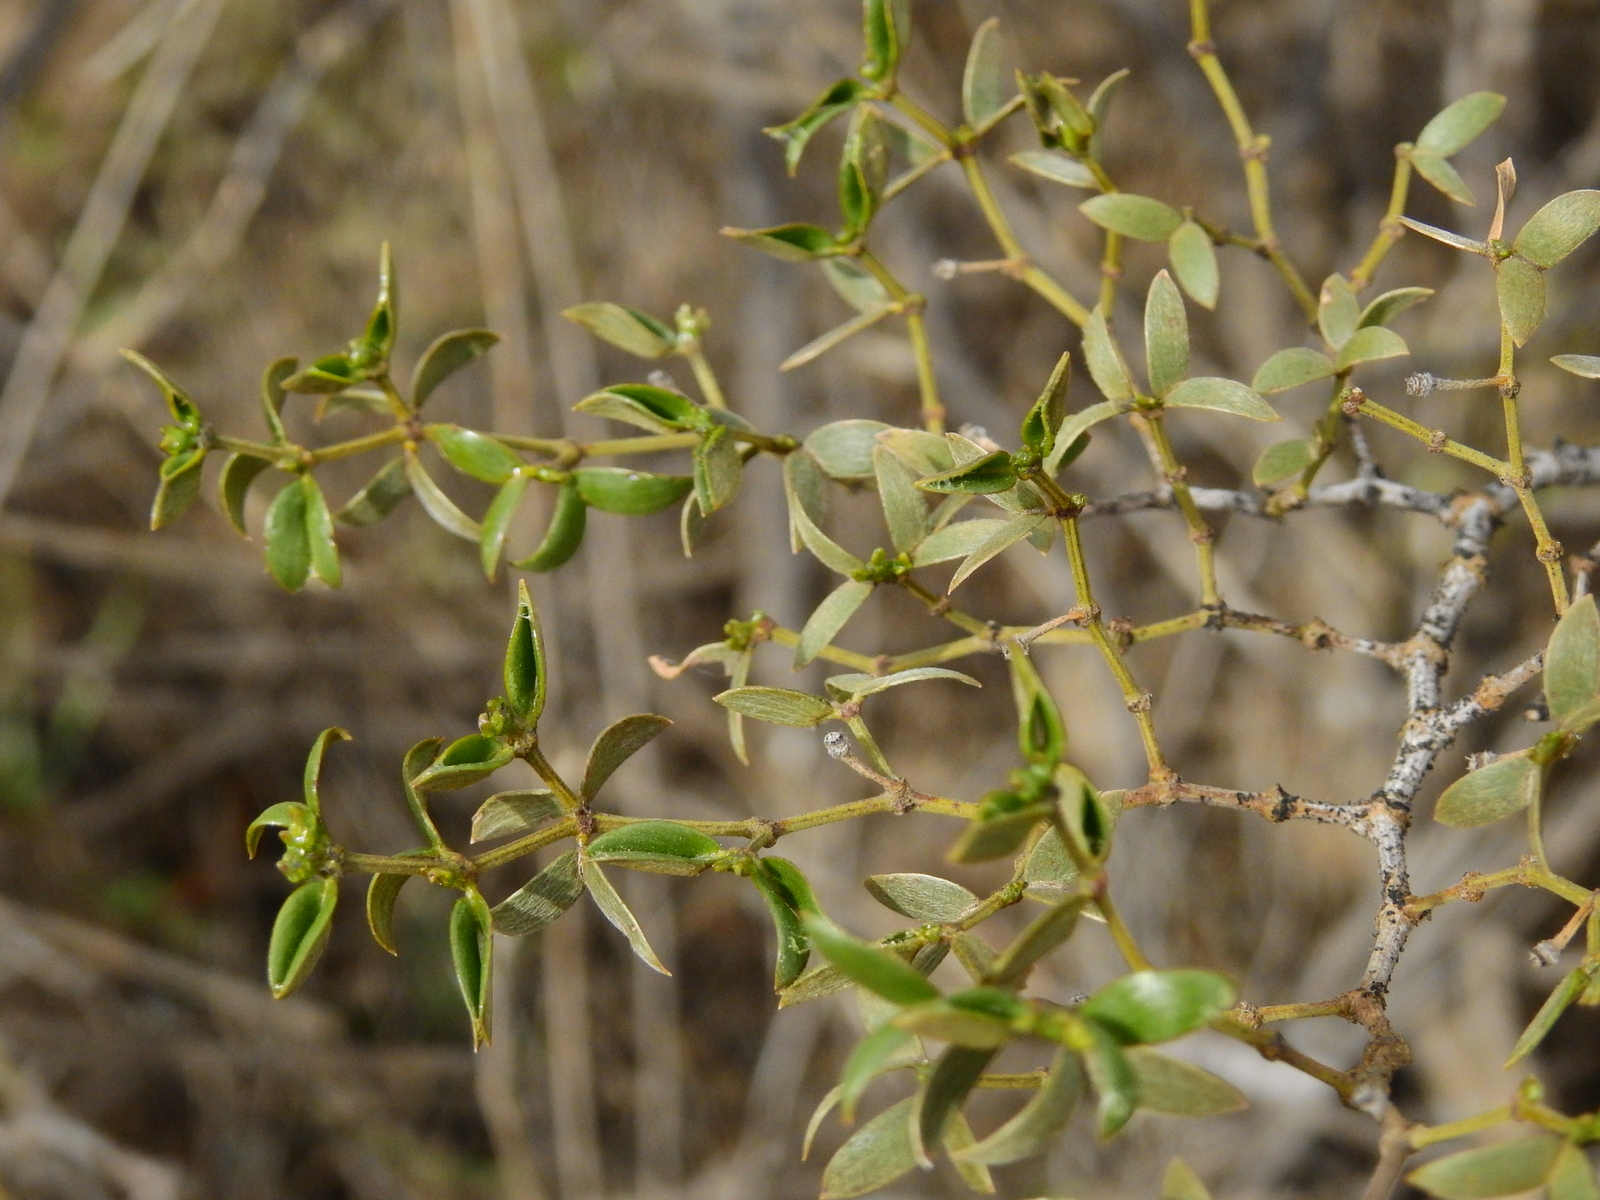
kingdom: Plantae
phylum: Tracheophyta
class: Magnoliopsida
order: Zygophyllales
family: Zygophyllaceae
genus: Larrea
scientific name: Larrea divaricata
